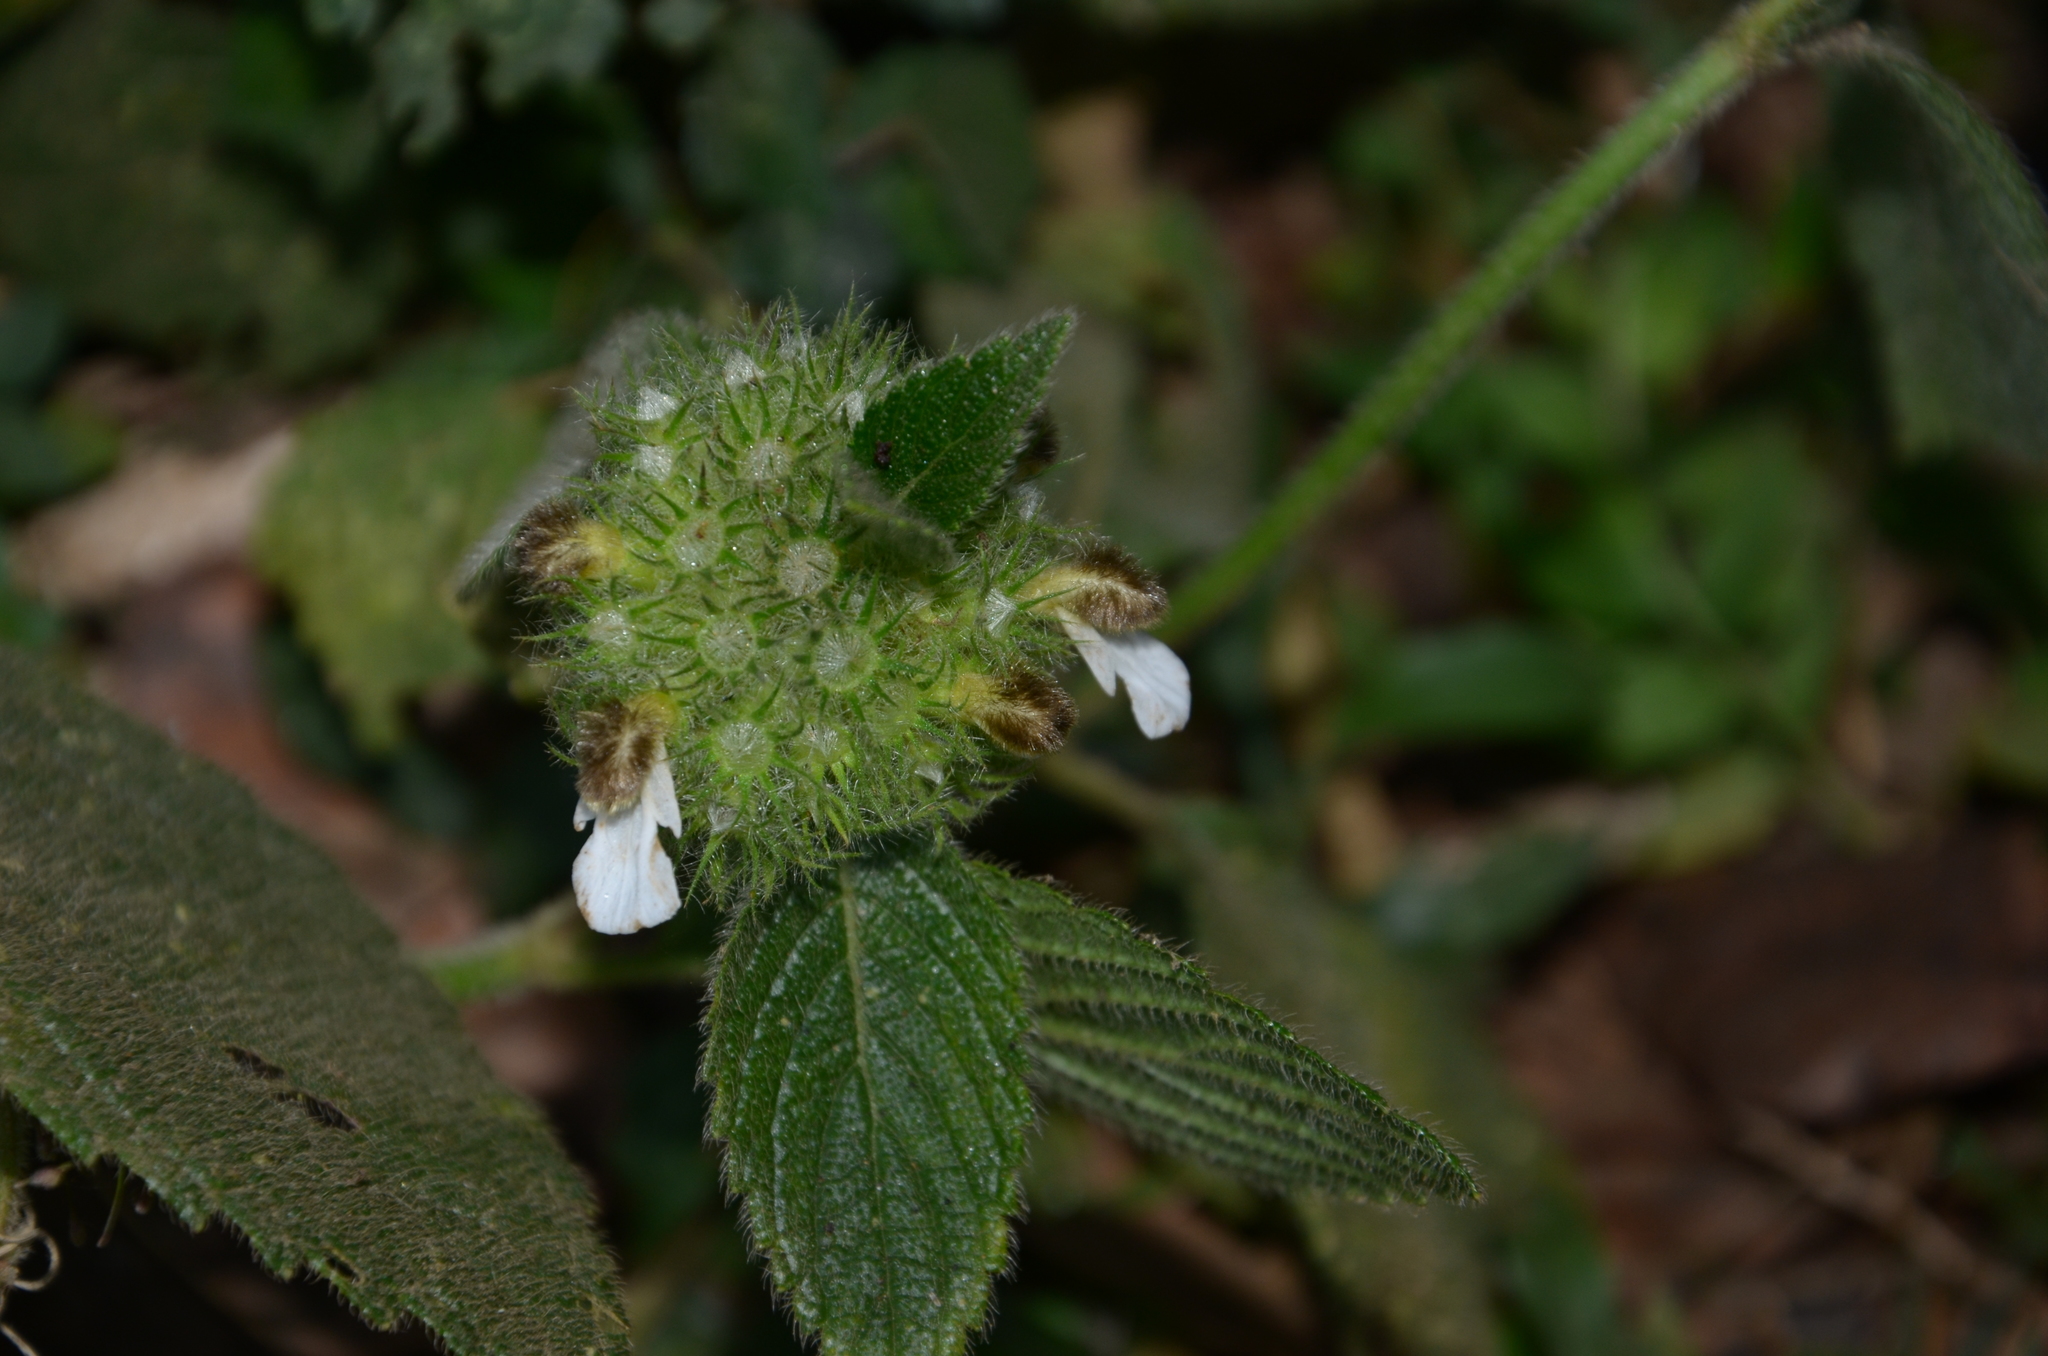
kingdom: Plantae
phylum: Tracheophyta
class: Magnoliopsida
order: Lamiales
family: Lamiaceae
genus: Leucas
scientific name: Leucas ciliata
